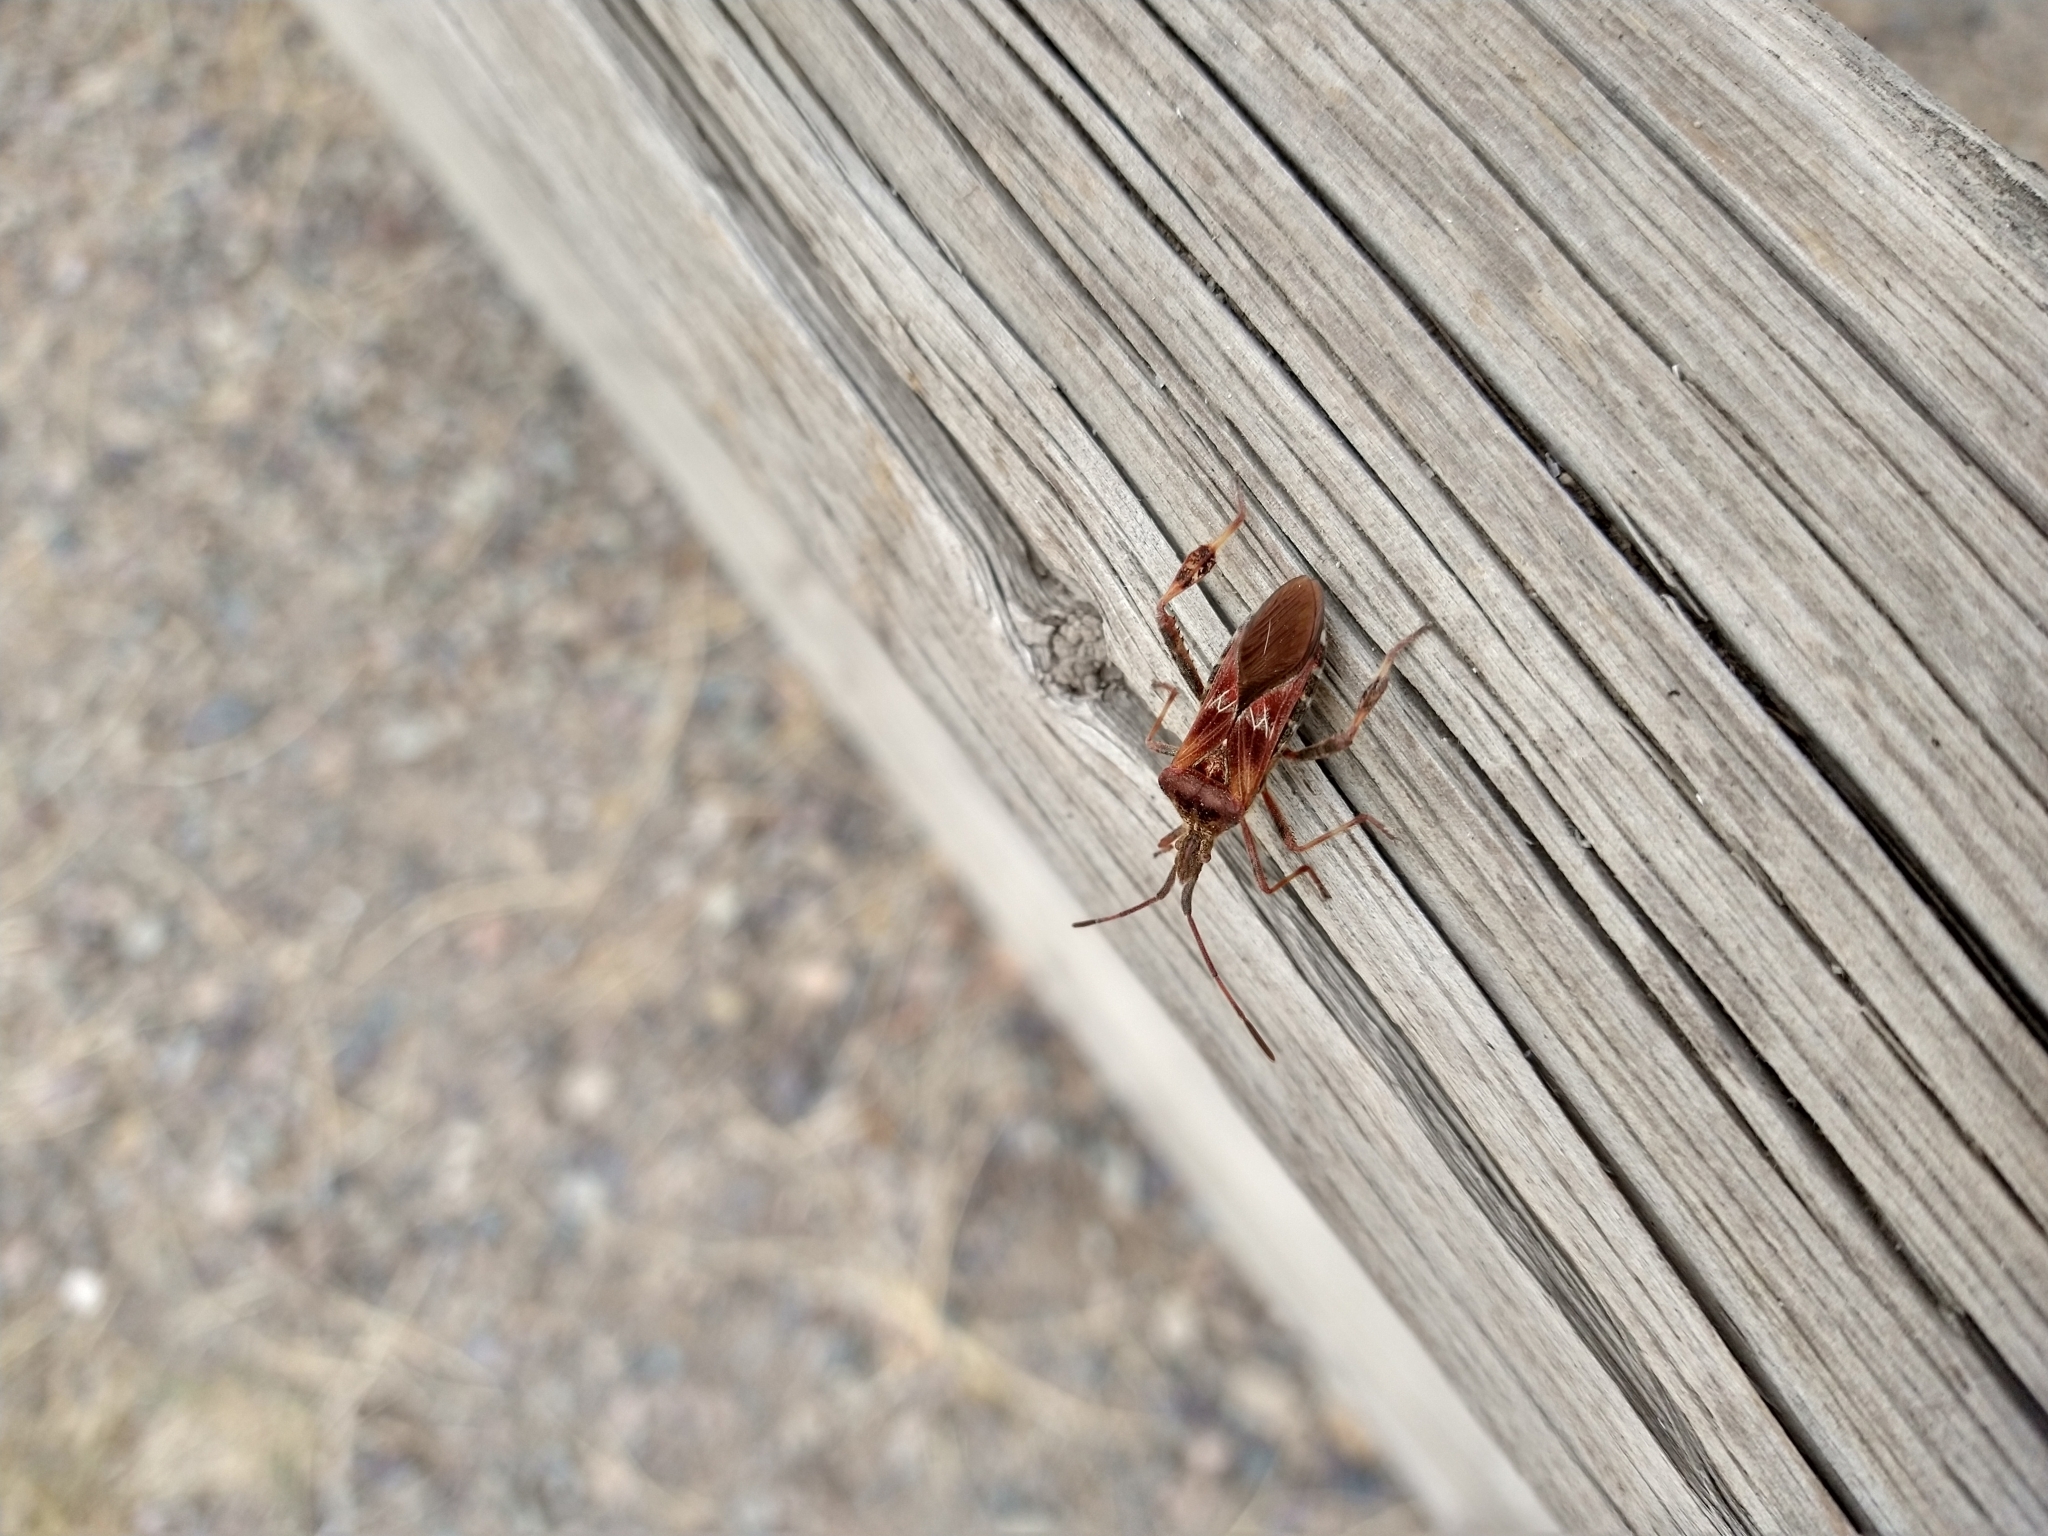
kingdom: Animalia
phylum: Arthropoda
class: Insecta
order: Hemiptera
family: Coreidae
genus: Leptoglossus
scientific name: Leptoglossus occidentalis
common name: Western conifer-seed bug
